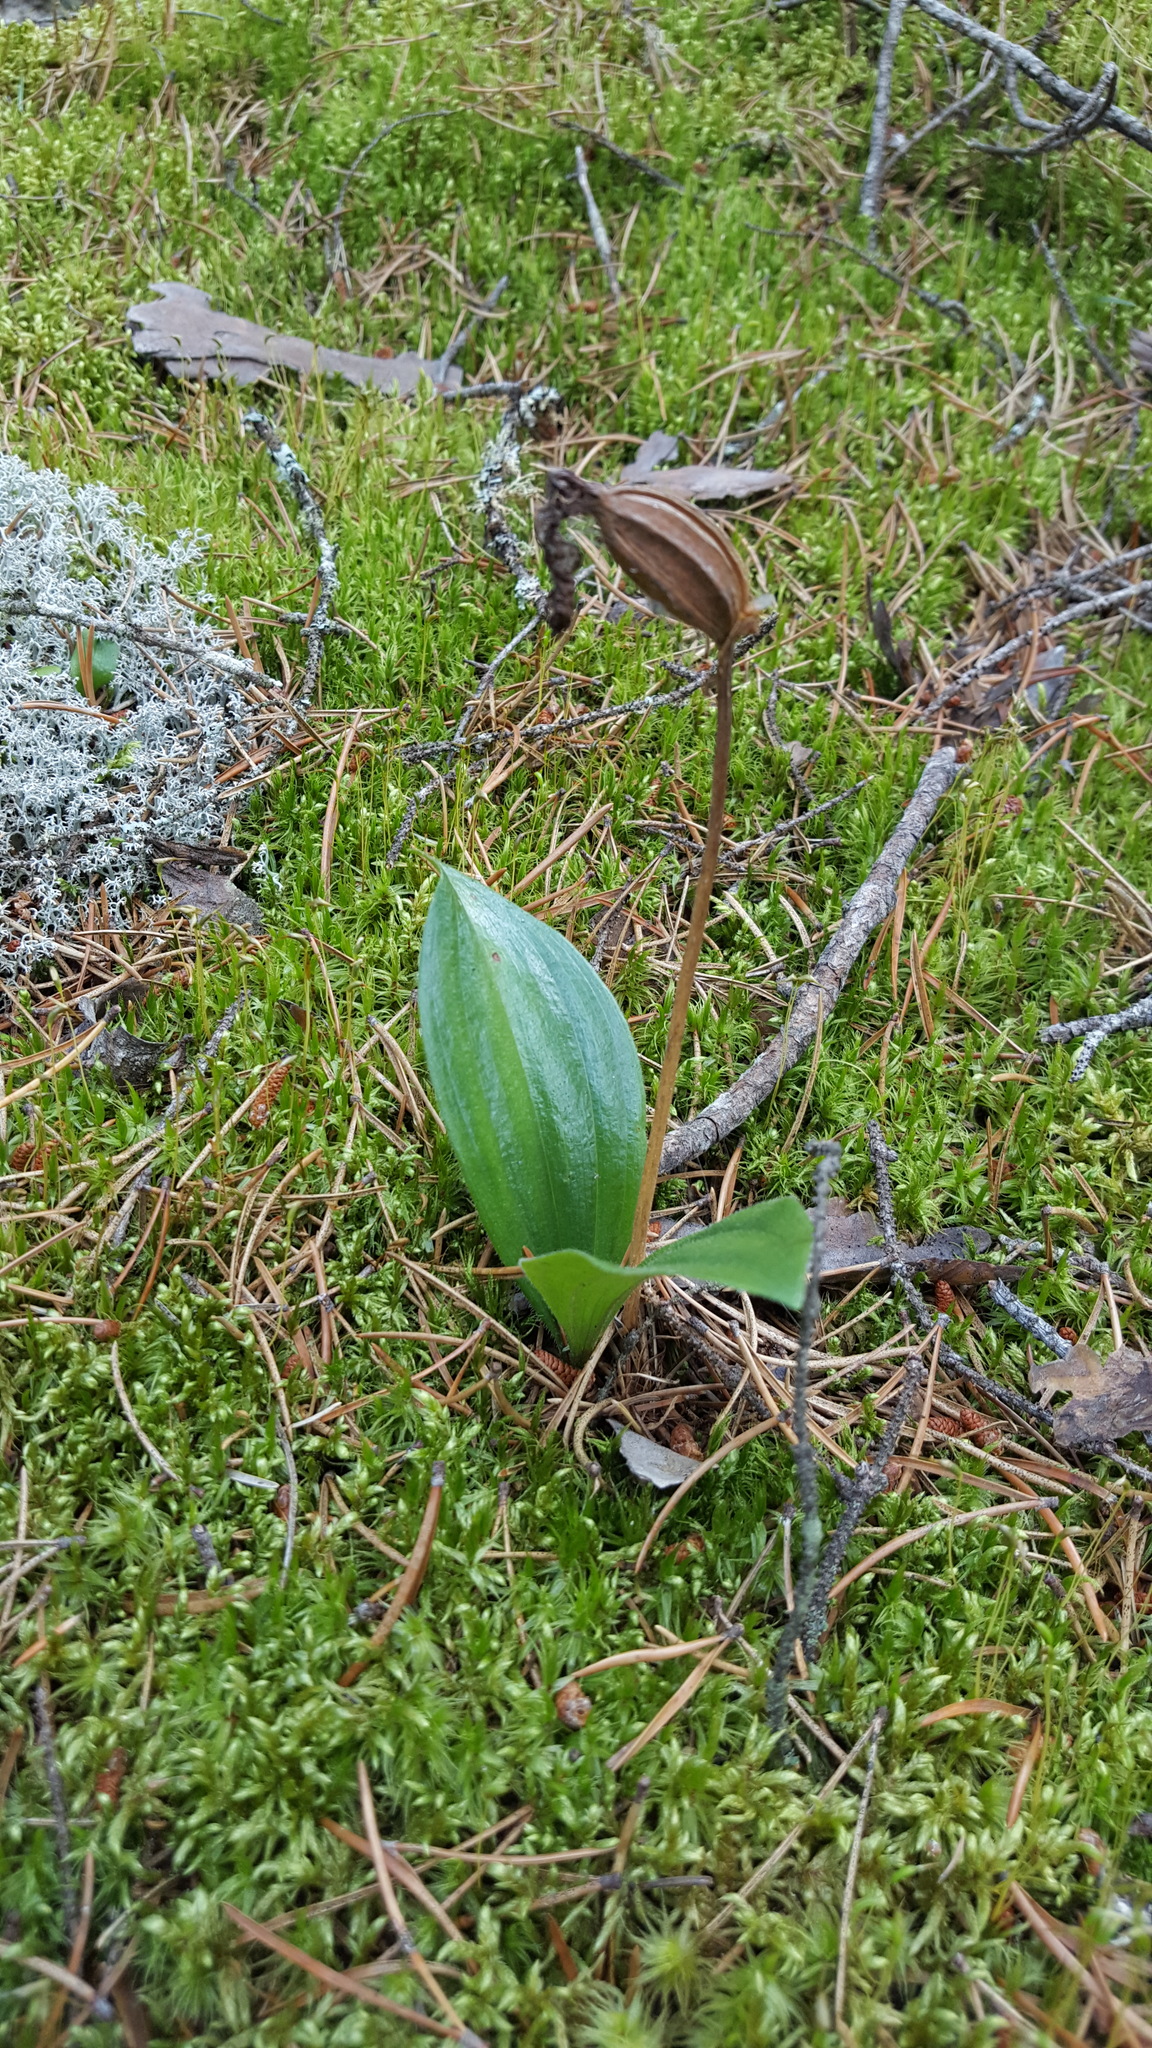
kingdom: Plantae
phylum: Tracheophyta
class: Liliopsida
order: Asparagales
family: Orchidaceae
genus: Cypripedium
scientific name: Cypripedium acaule
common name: Pink lady's-slipper
